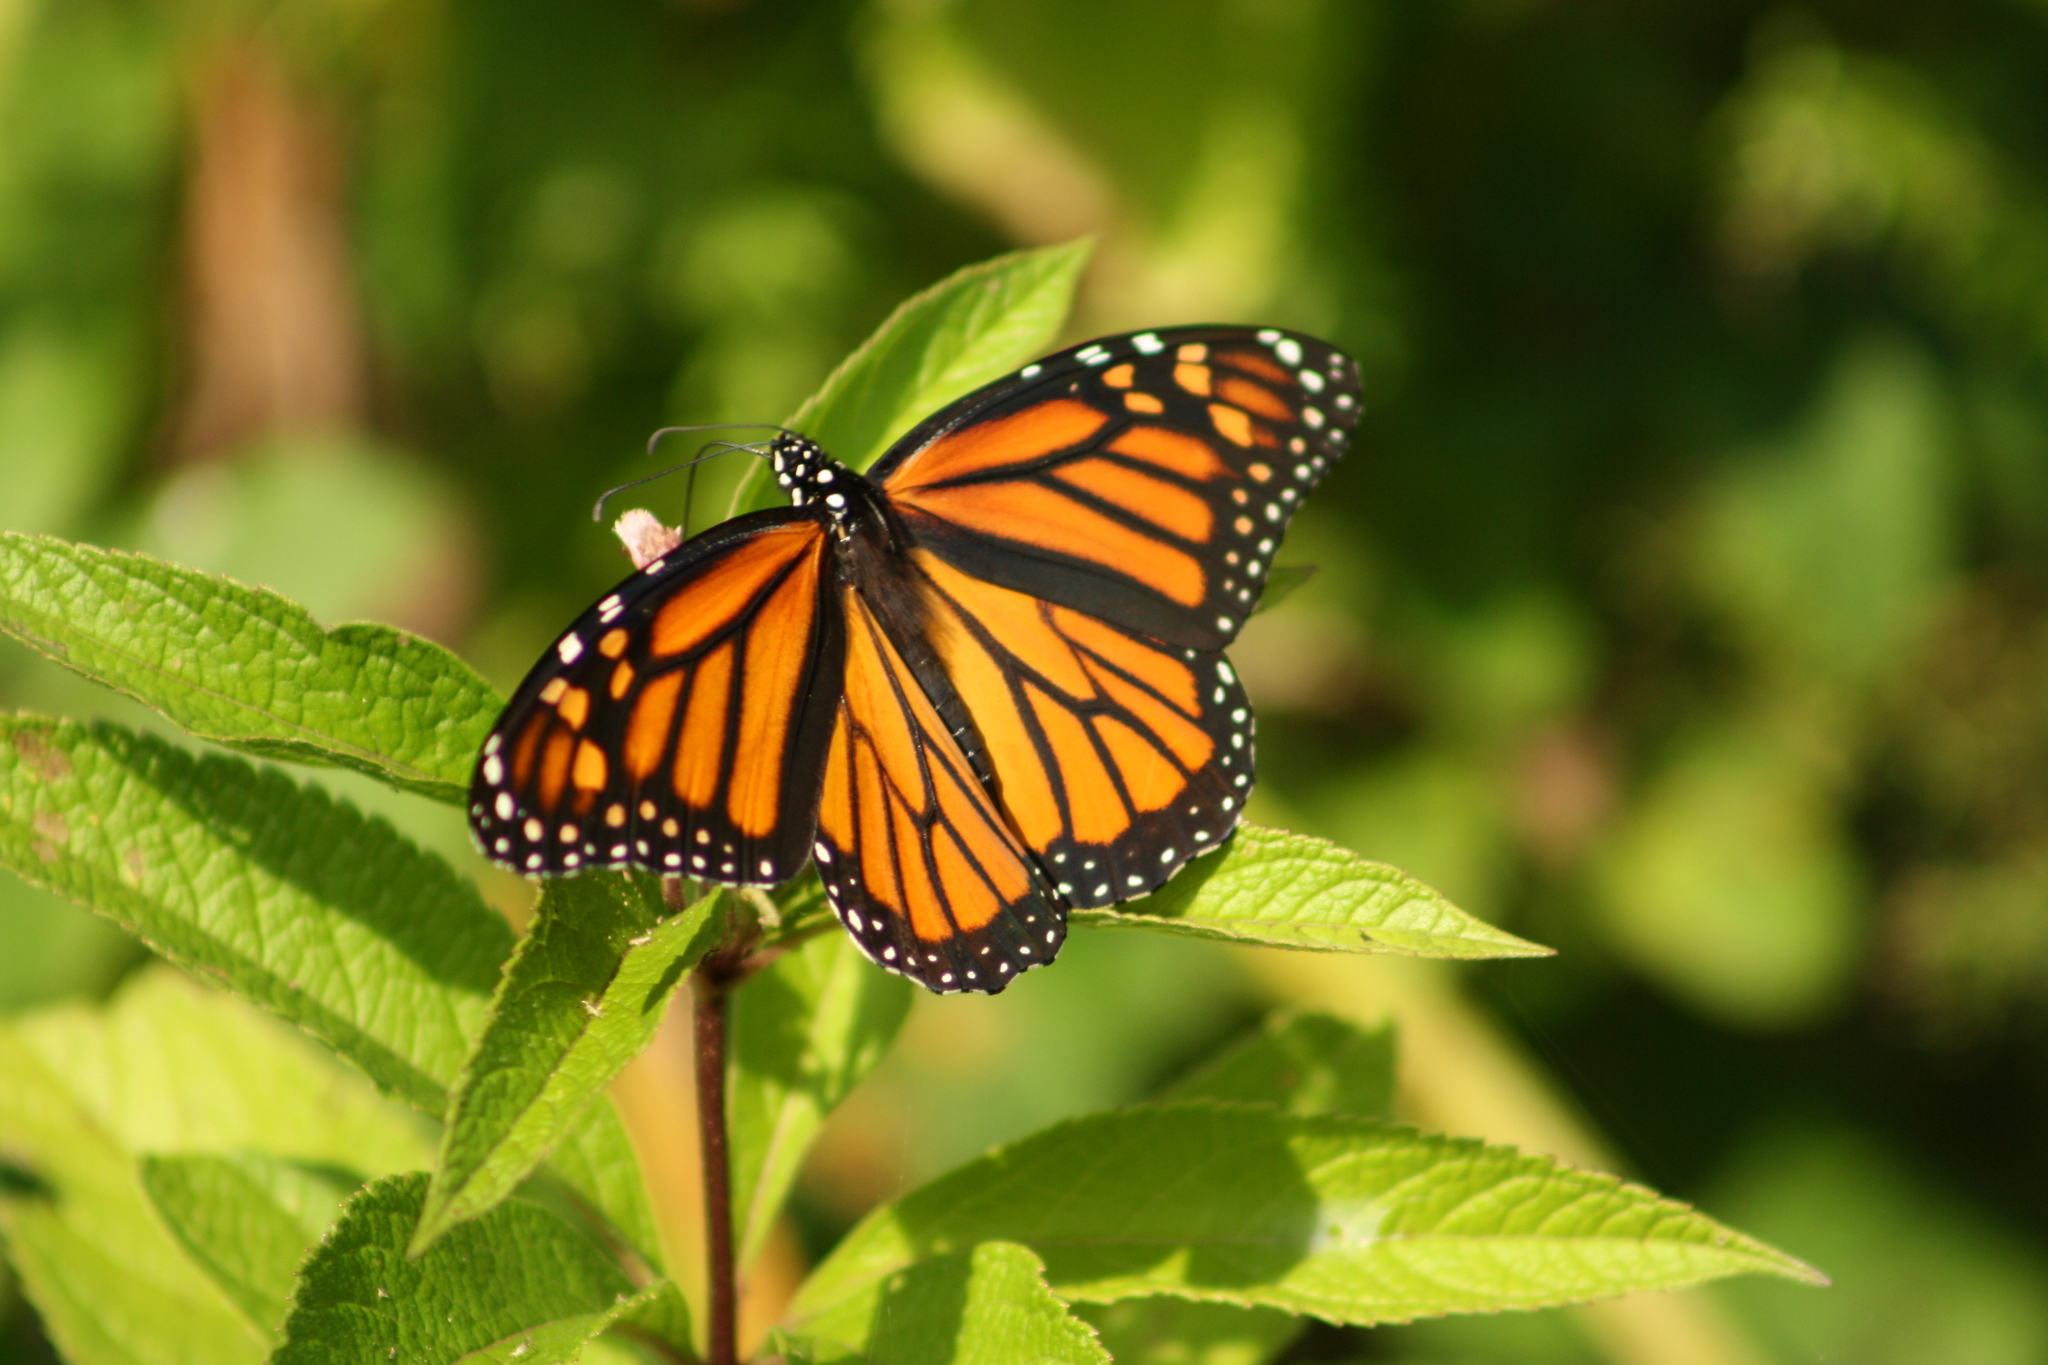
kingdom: Animalia
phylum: Arthropoda
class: Insecta
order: Lepidoptera
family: Nymphalidae
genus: Danaus
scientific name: Danaus plexippus
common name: Monarch
